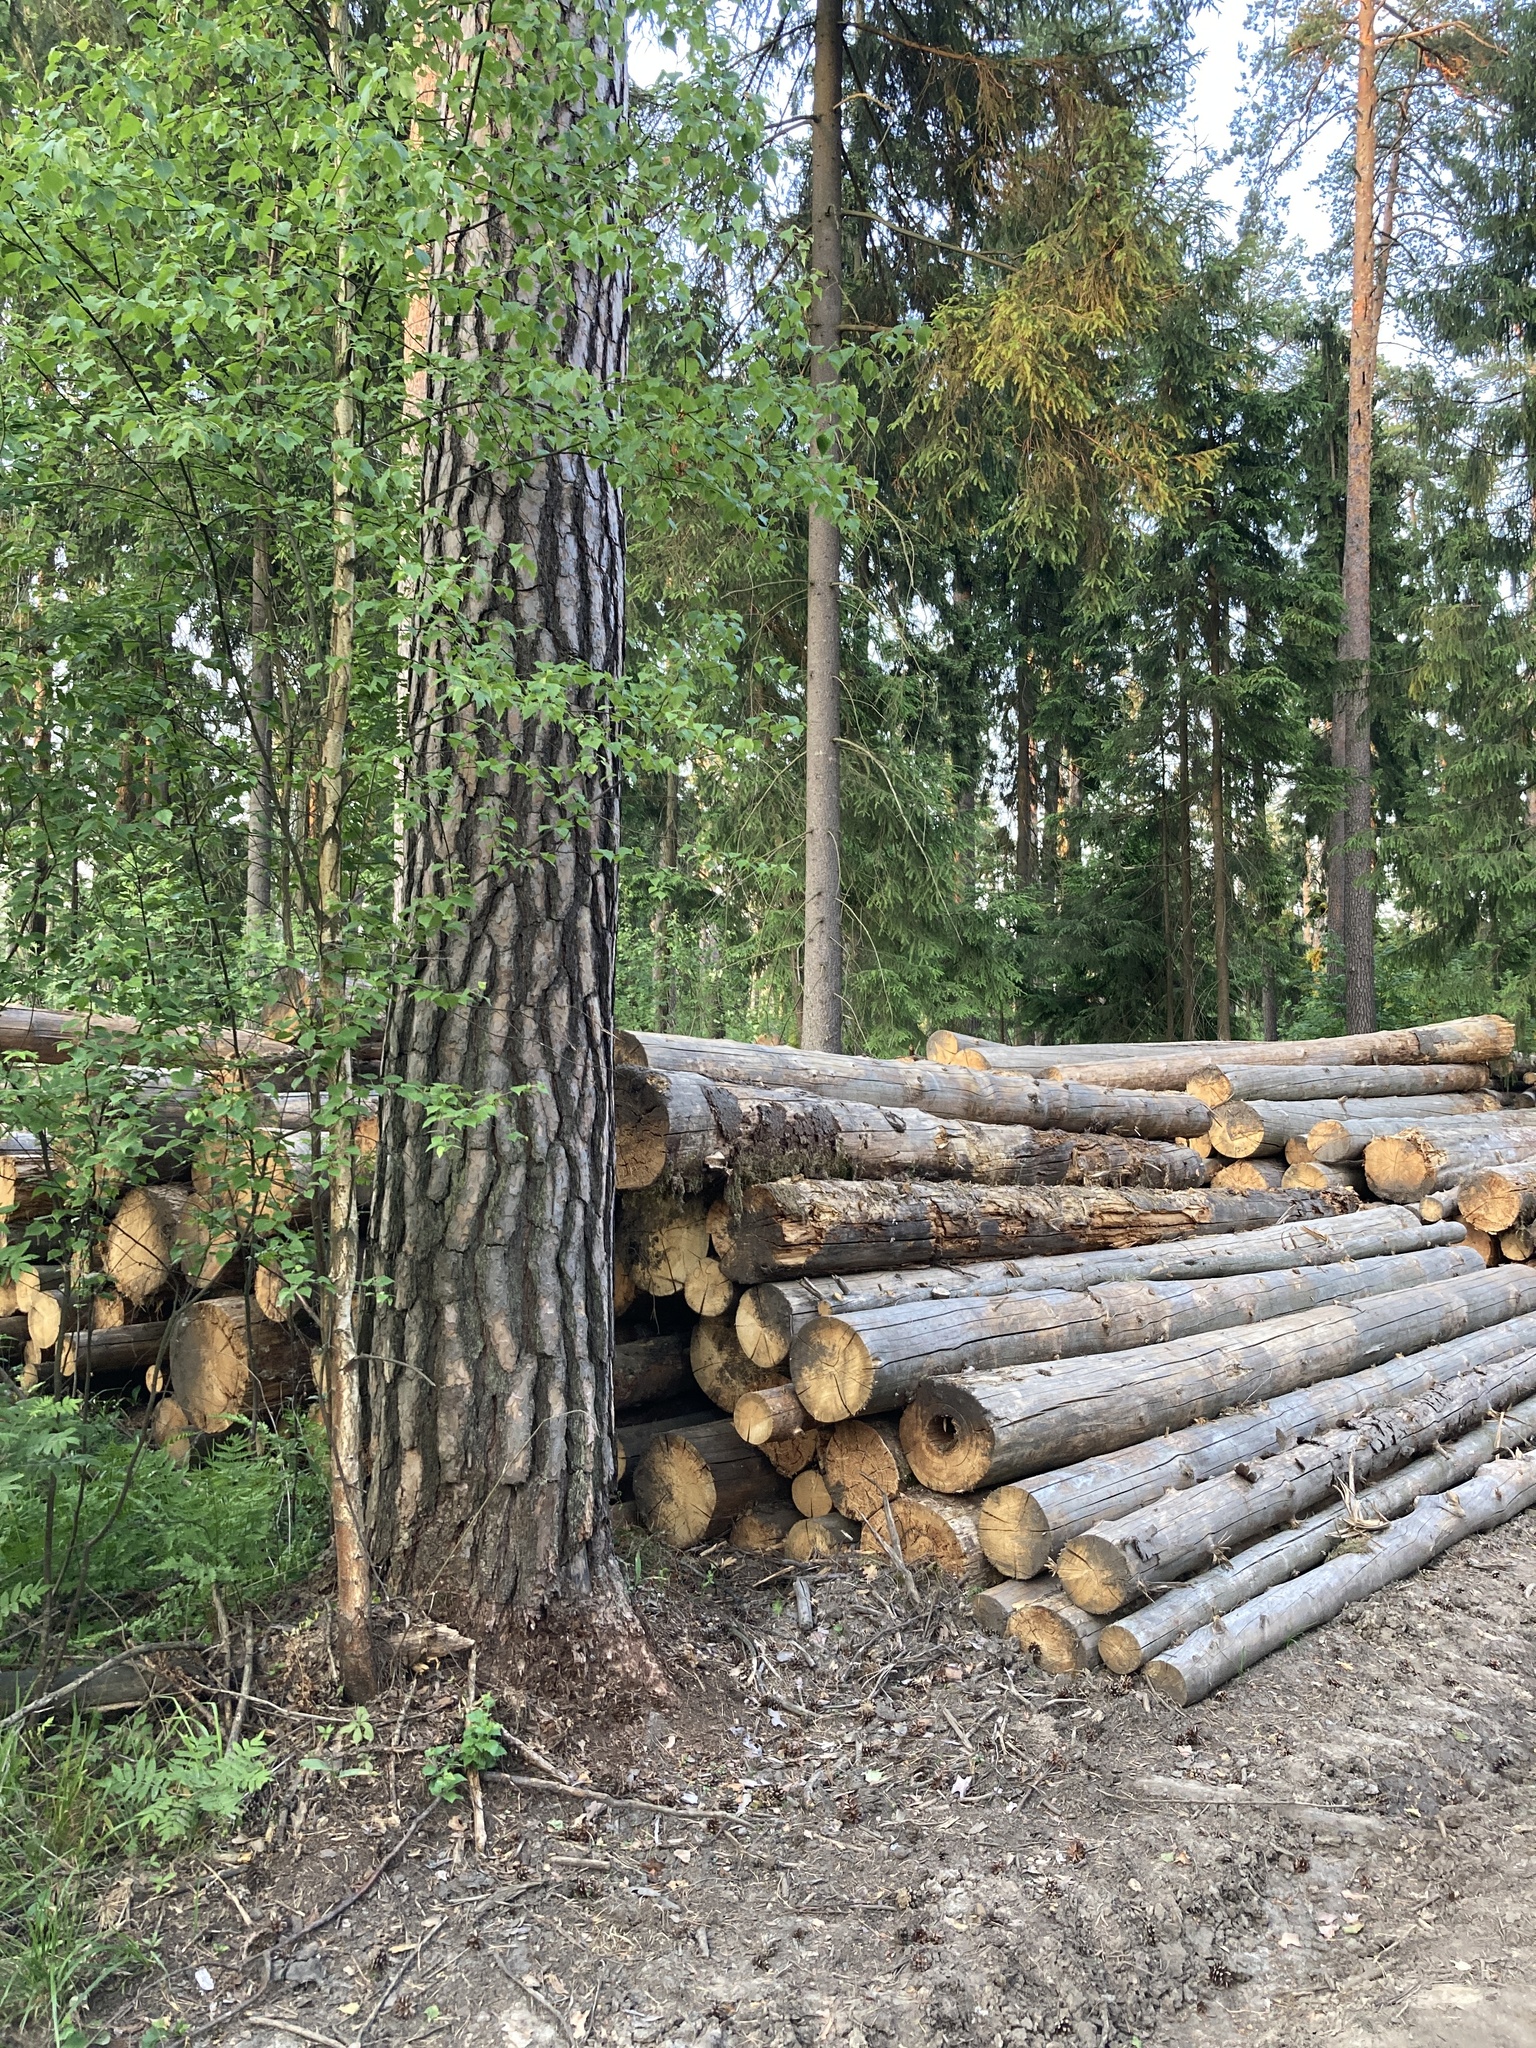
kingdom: Plantae
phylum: Tracheophyta
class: Pinopsida
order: Pinales
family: Pinaceae
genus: Pinus
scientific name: Pinus sylvestris
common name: Scots pine
